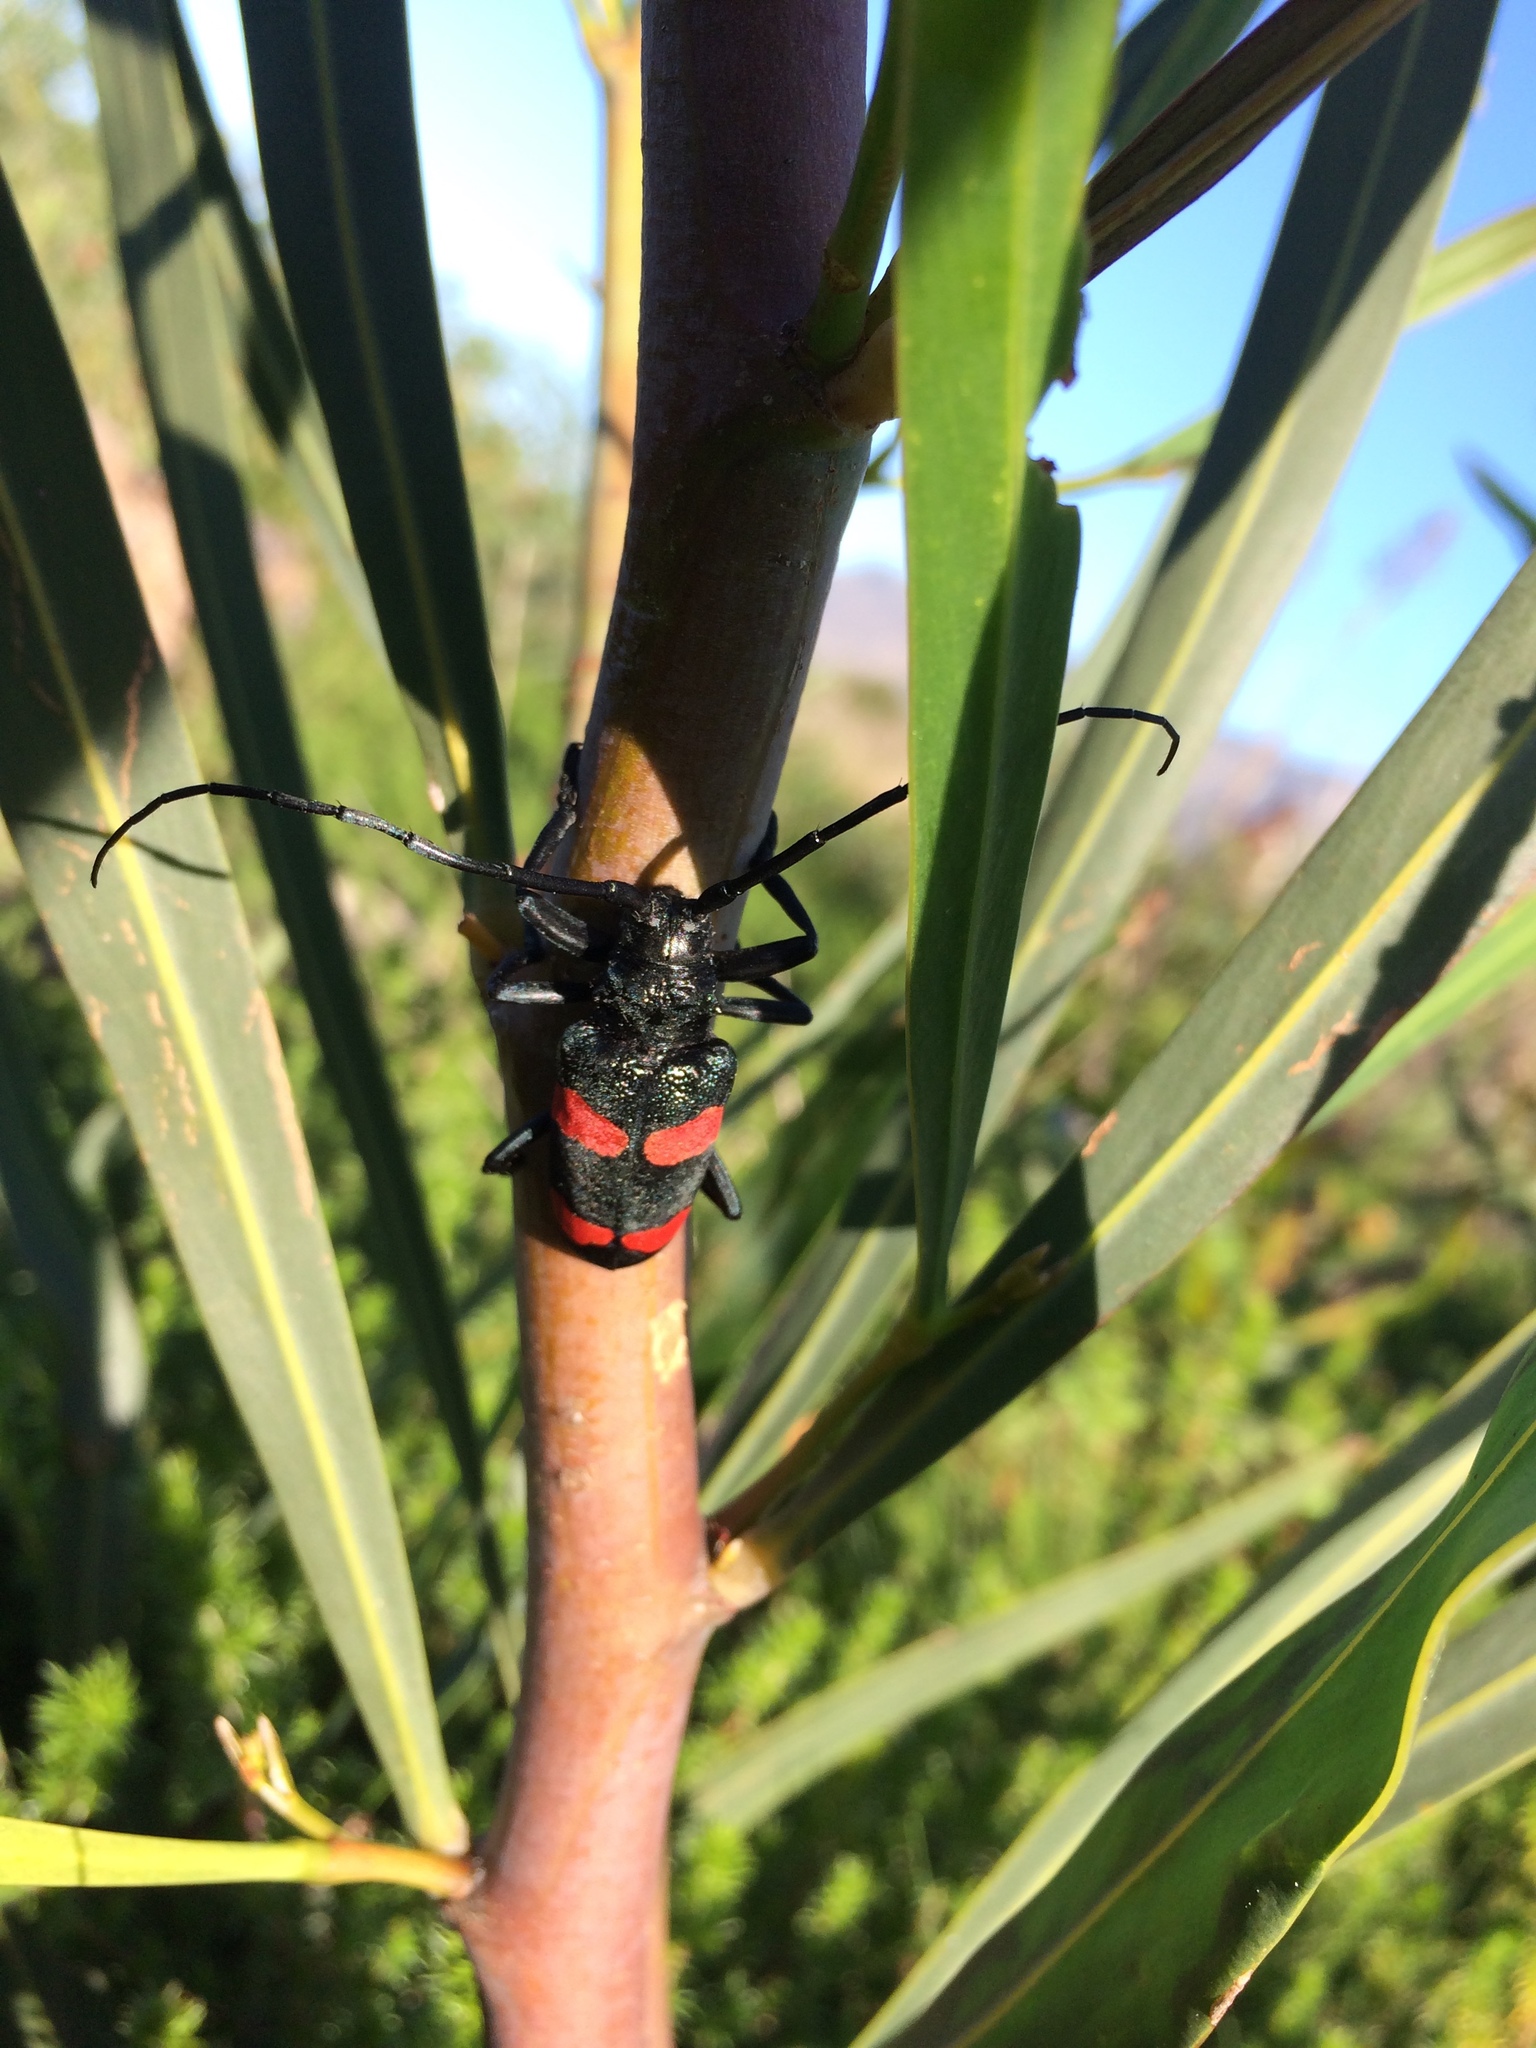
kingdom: Animalia
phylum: Arthropoda
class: Insecta
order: Coleoptera
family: Cerambycidae
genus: Ceroplesis
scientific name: Ceroplesis aethiops
